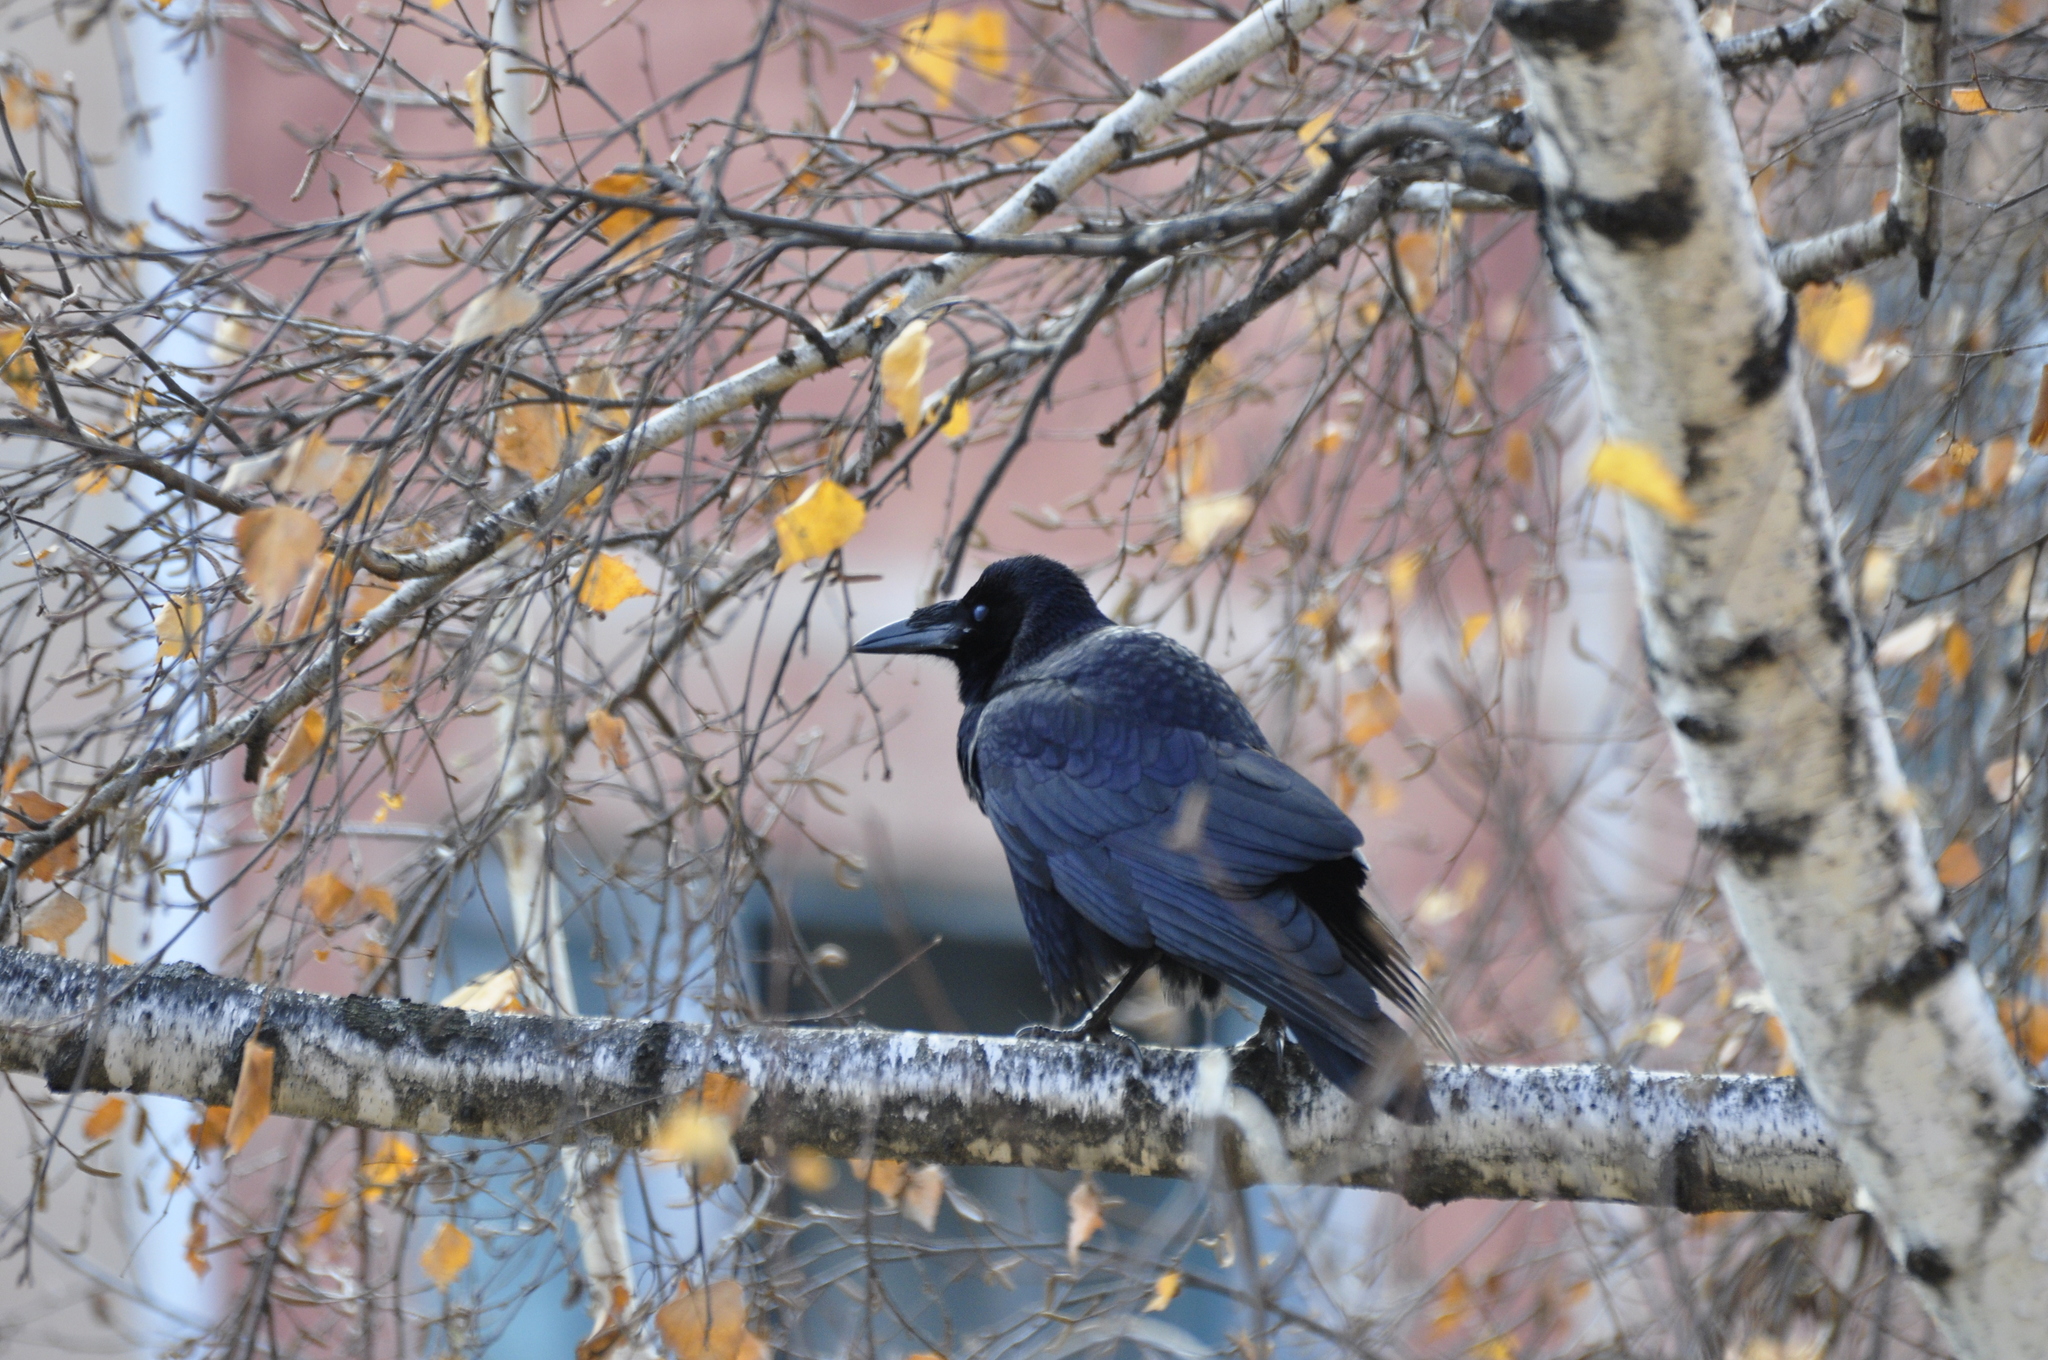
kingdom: Animalia
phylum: Chordata
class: Aves
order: Passeriformes
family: Corvidae
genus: Corvus
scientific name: Corvus frugilegus
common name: Rook
